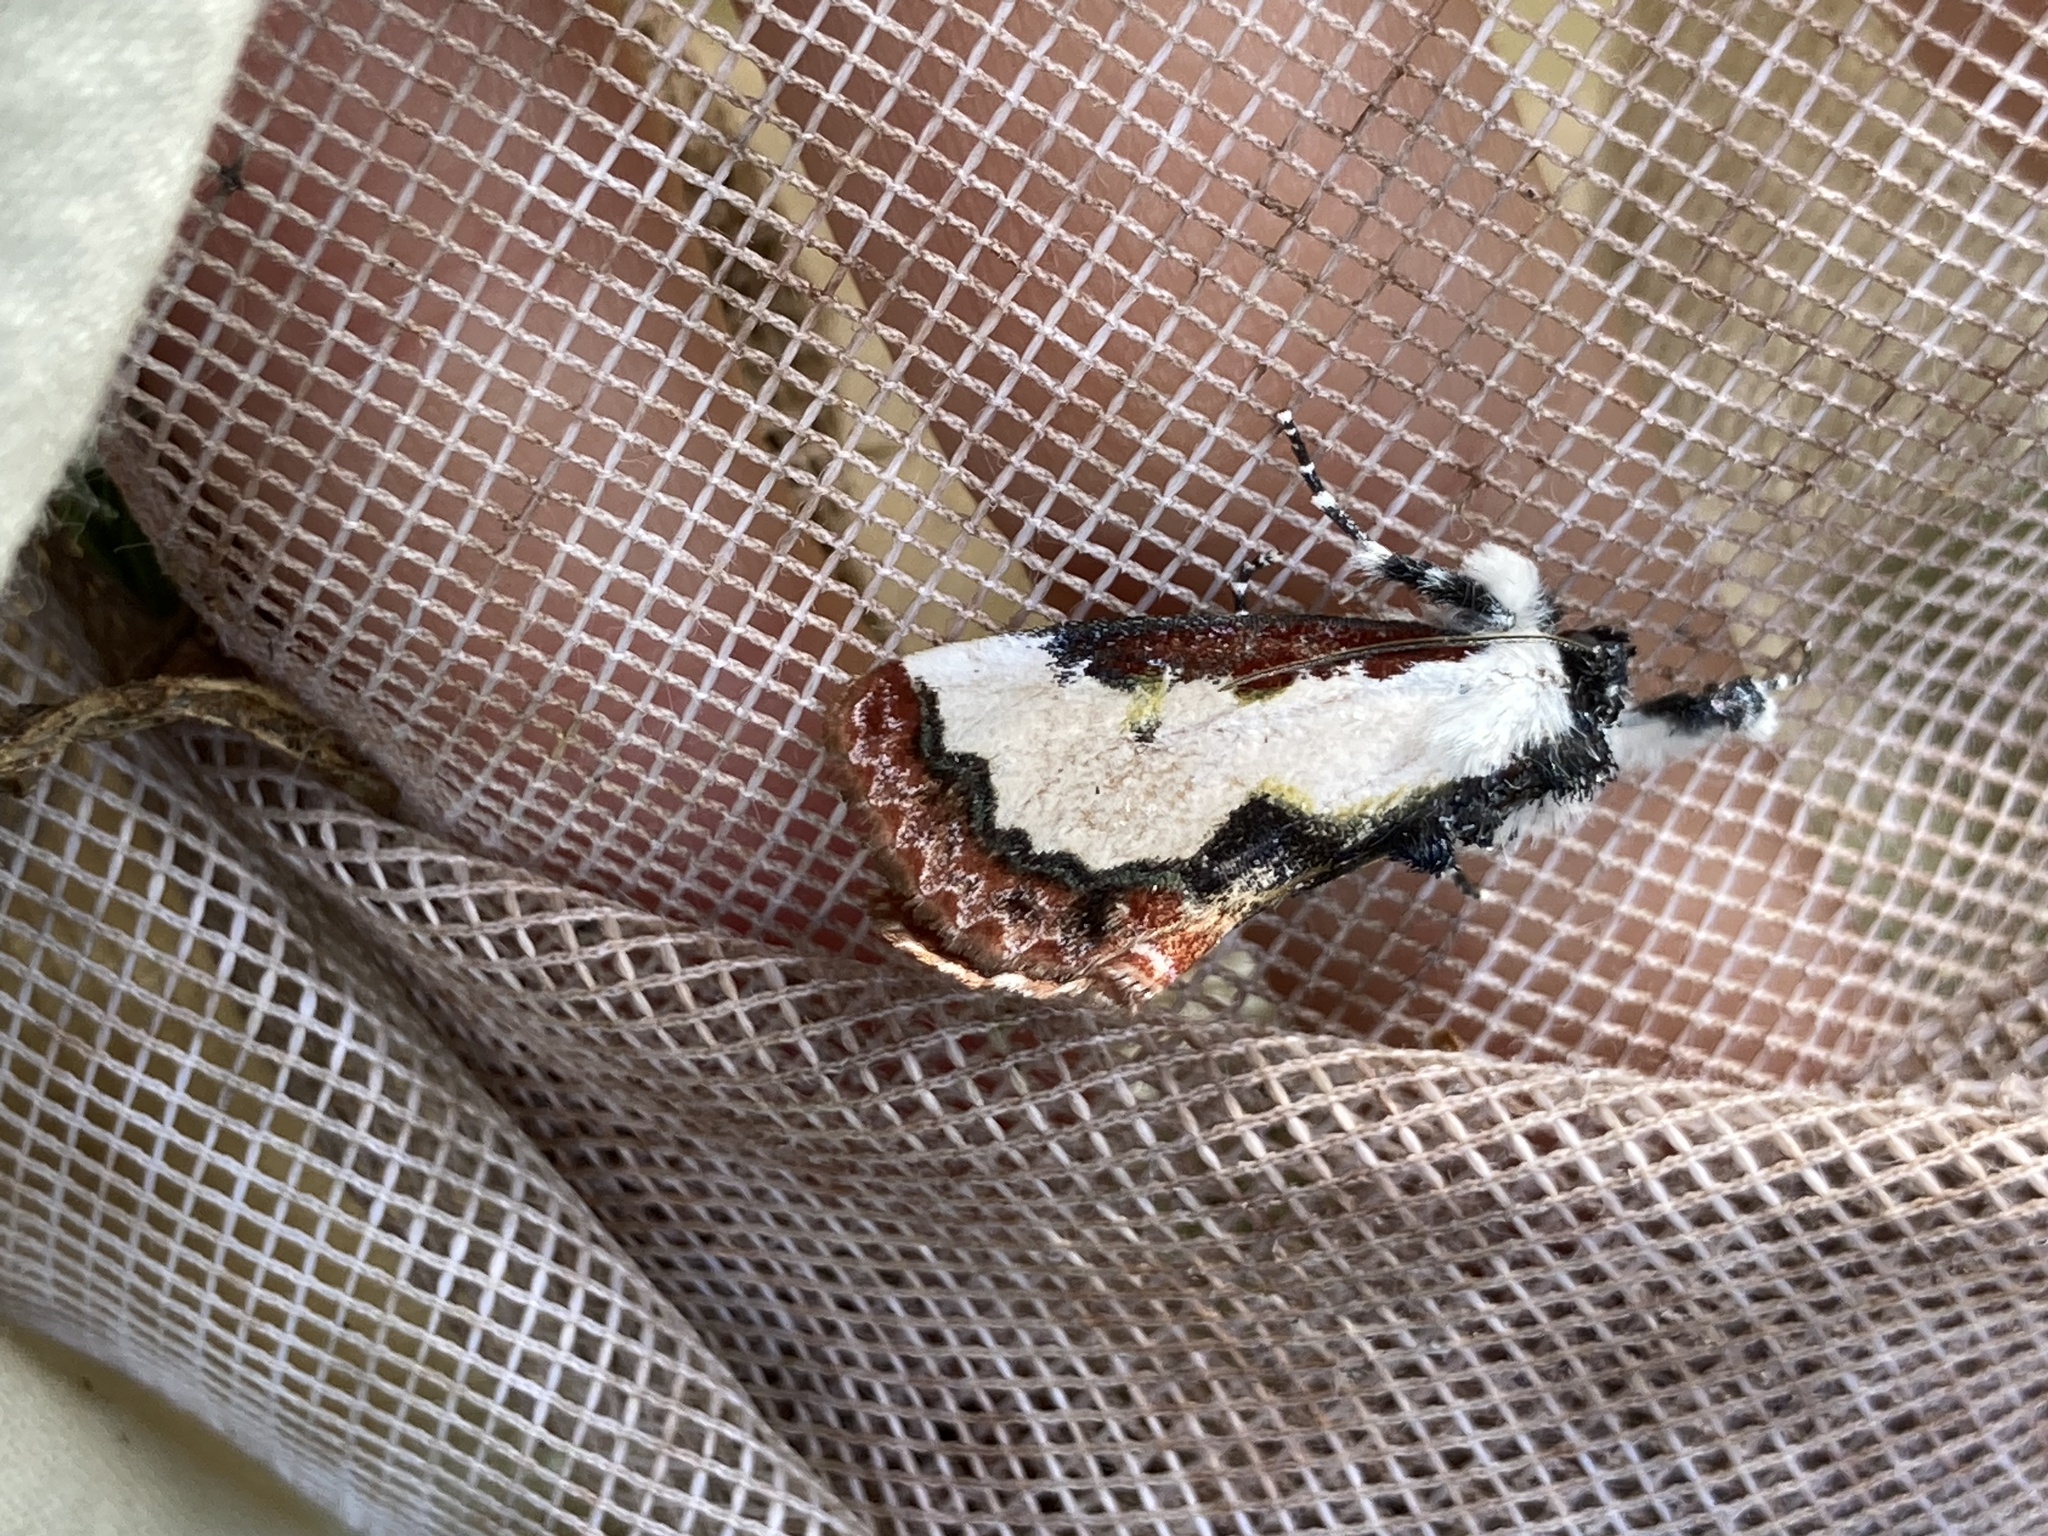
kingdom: Animalia
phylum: Arthropoda
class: Insecta
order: Lepidoptera
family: Noctuidae
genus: Eudryas
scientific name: Eudryas unio
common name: Pearly wood-nymph
